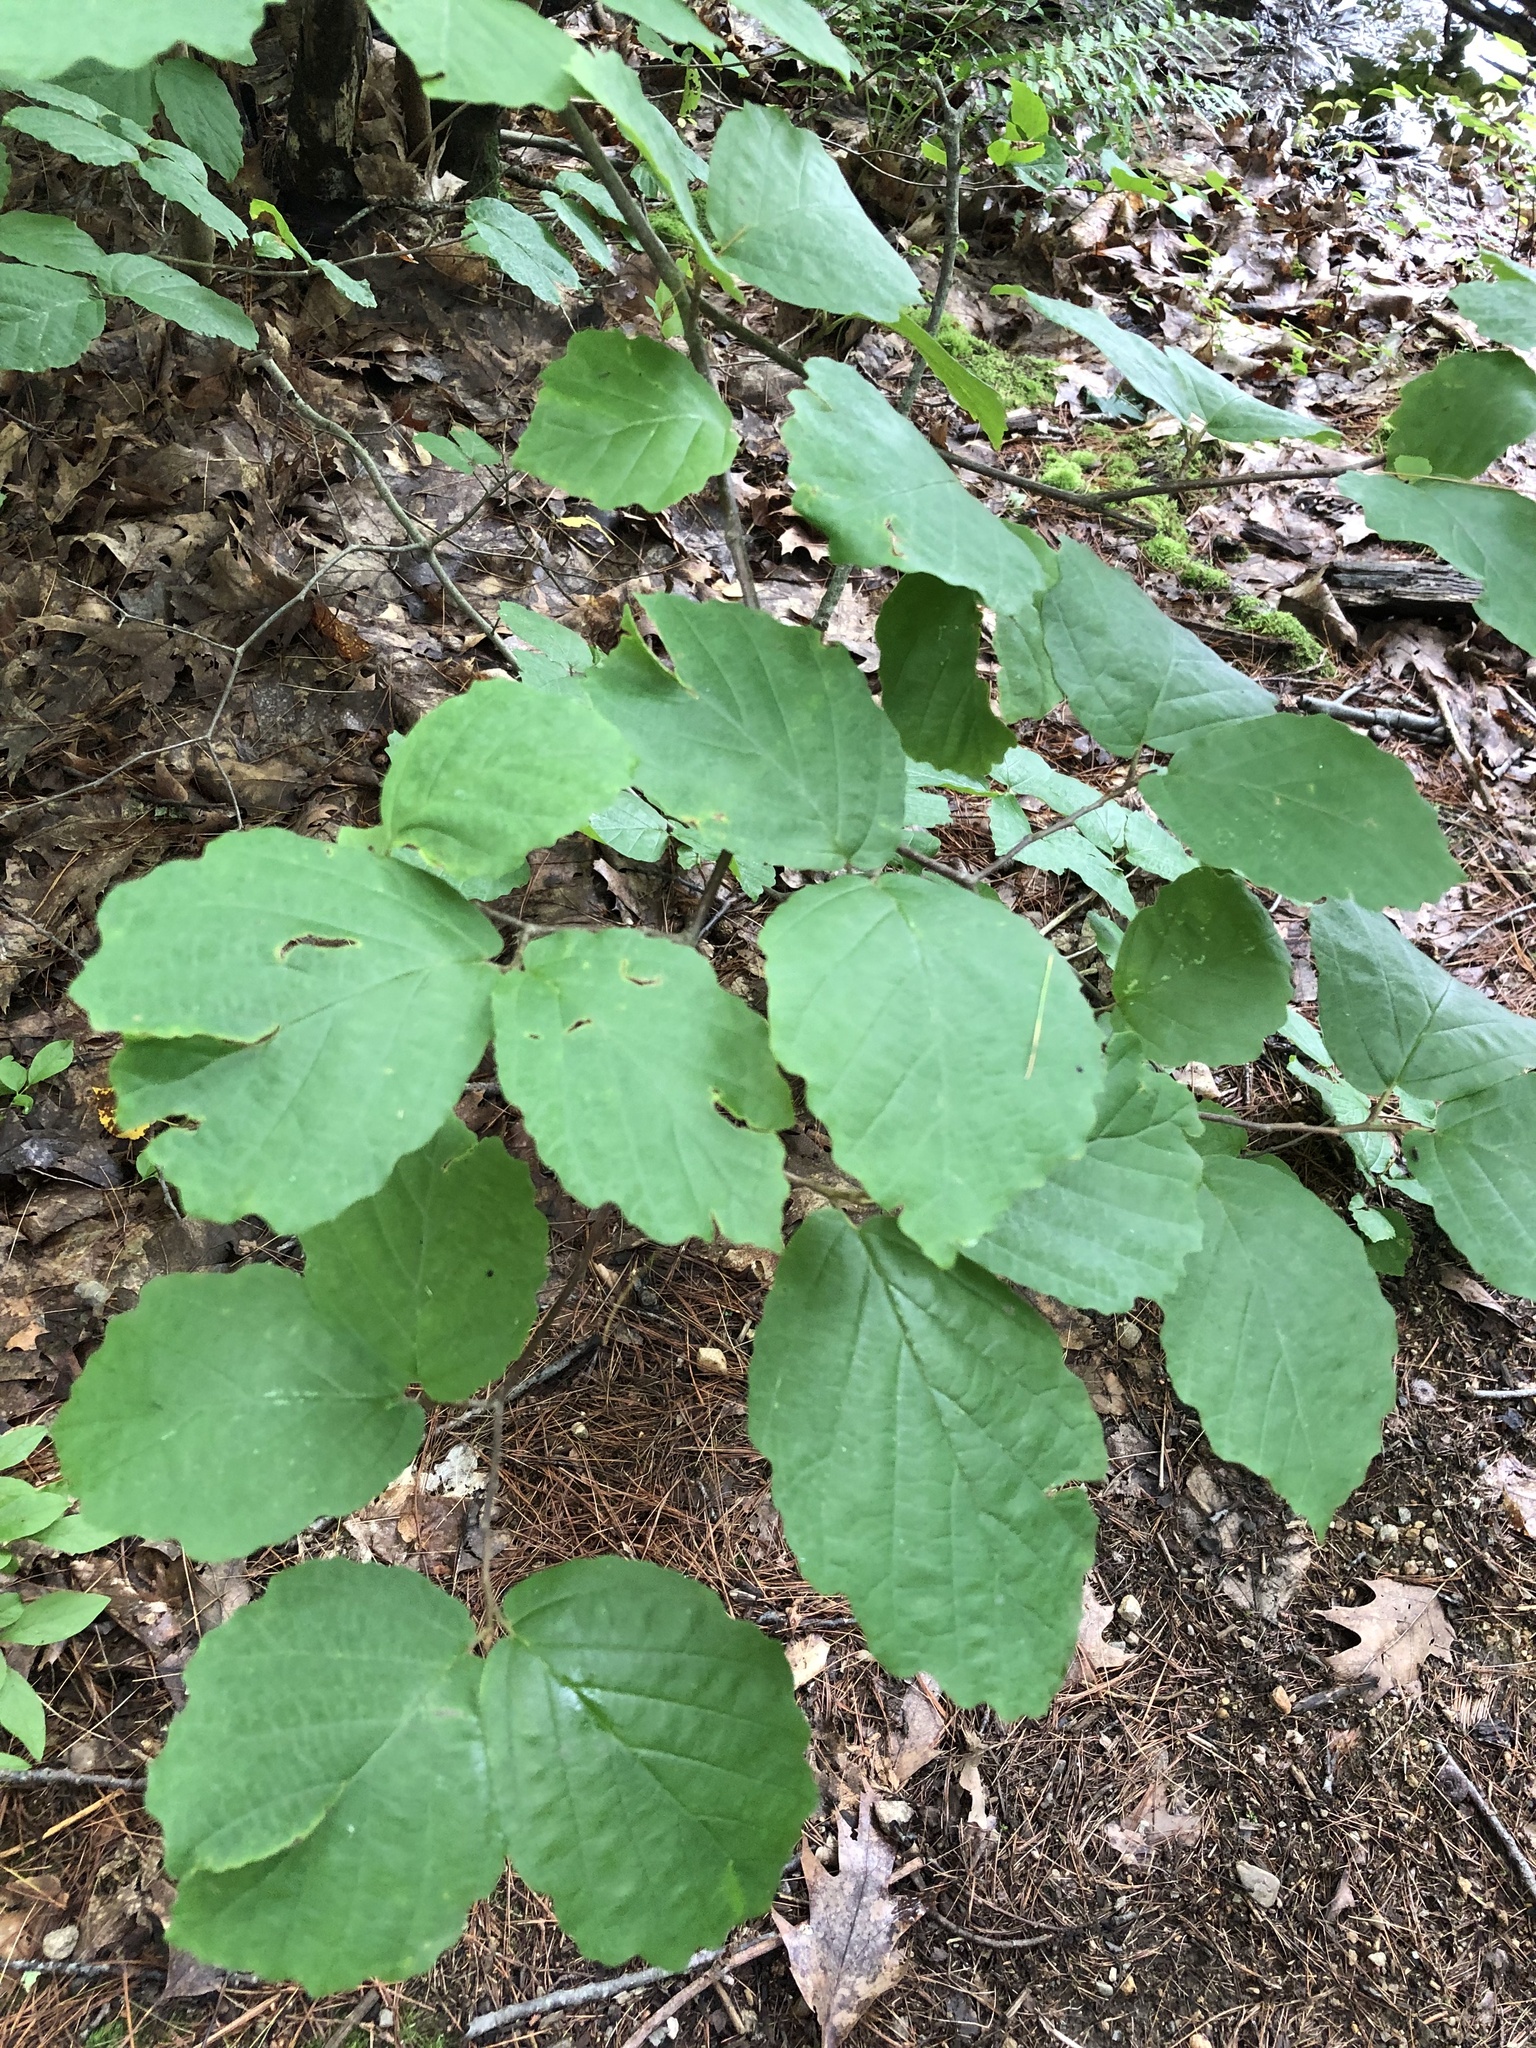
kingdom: Plantae
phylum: Tracheophyta
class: Magnoliopsida
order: Saxifragales
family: Hamamelidaceae
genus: Hamamelis
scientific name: Hamamelis virginiana
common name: Witch-hazel
